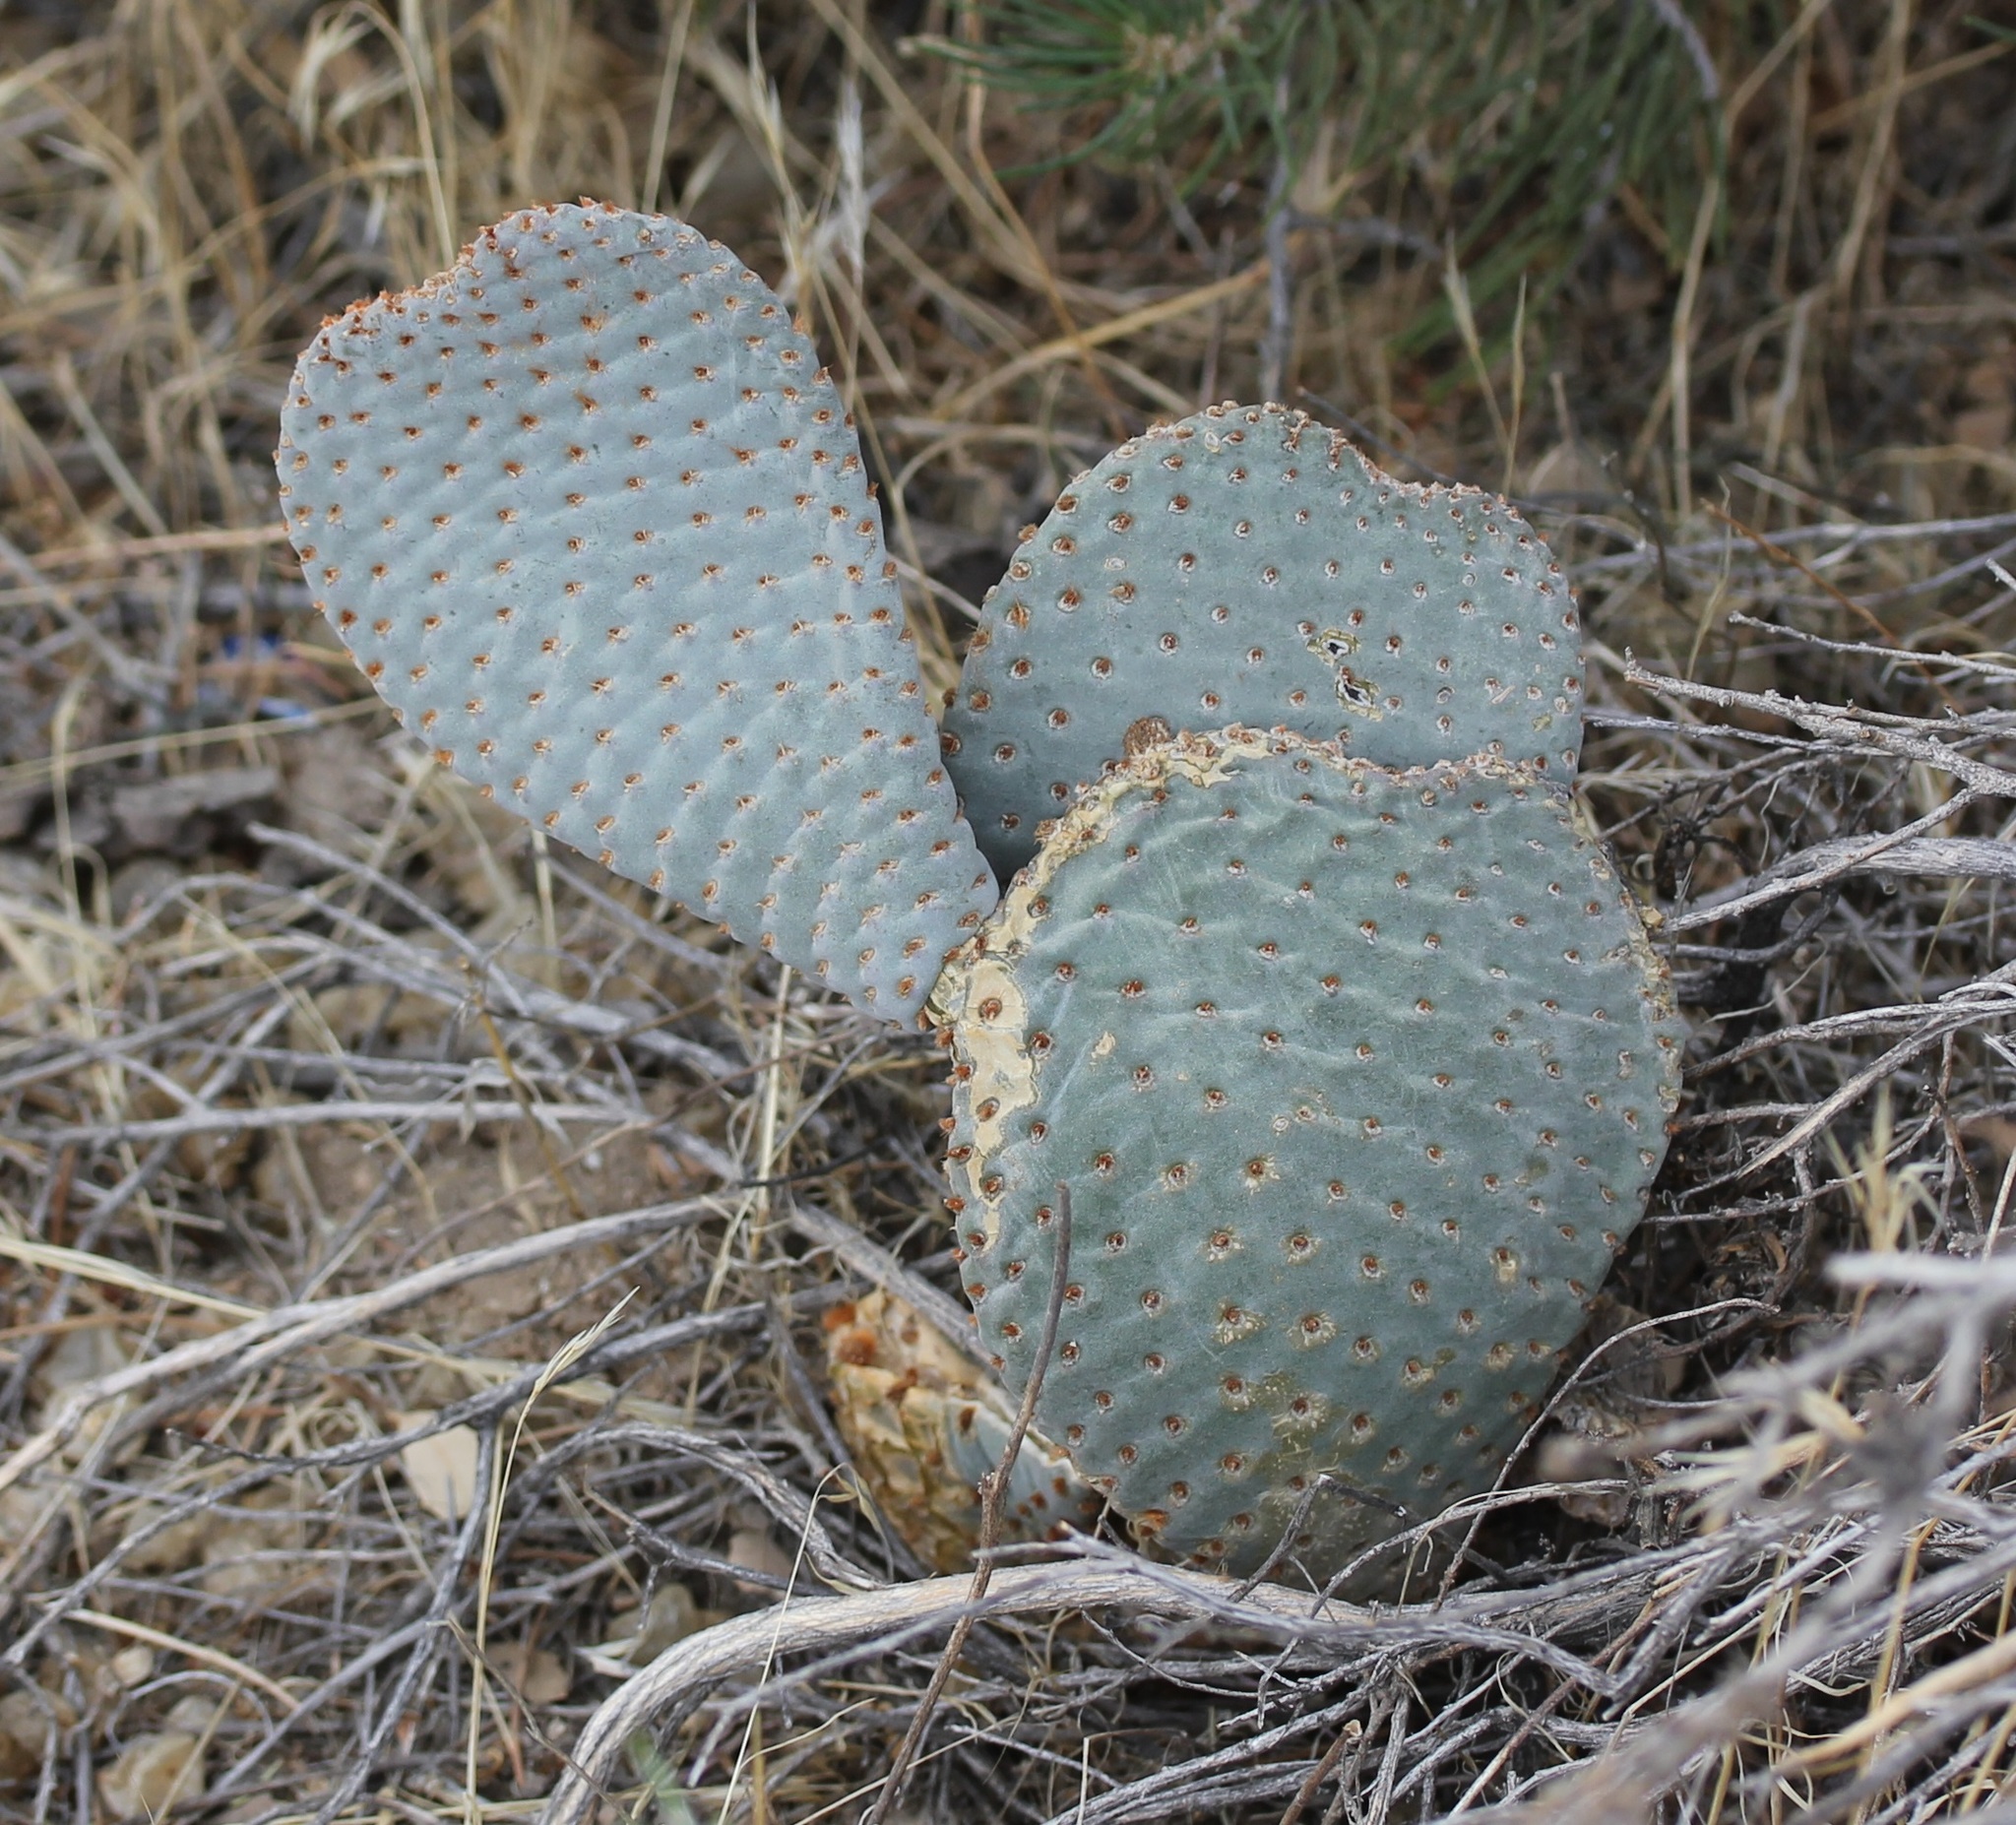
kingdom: Plantae
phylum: Tracheophyta
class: Magnoliopsida
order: Caryophyllales
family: Cactaceae
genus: Opuntia
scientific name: Opuntia basilaris
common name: Beavertail prickly-pear
